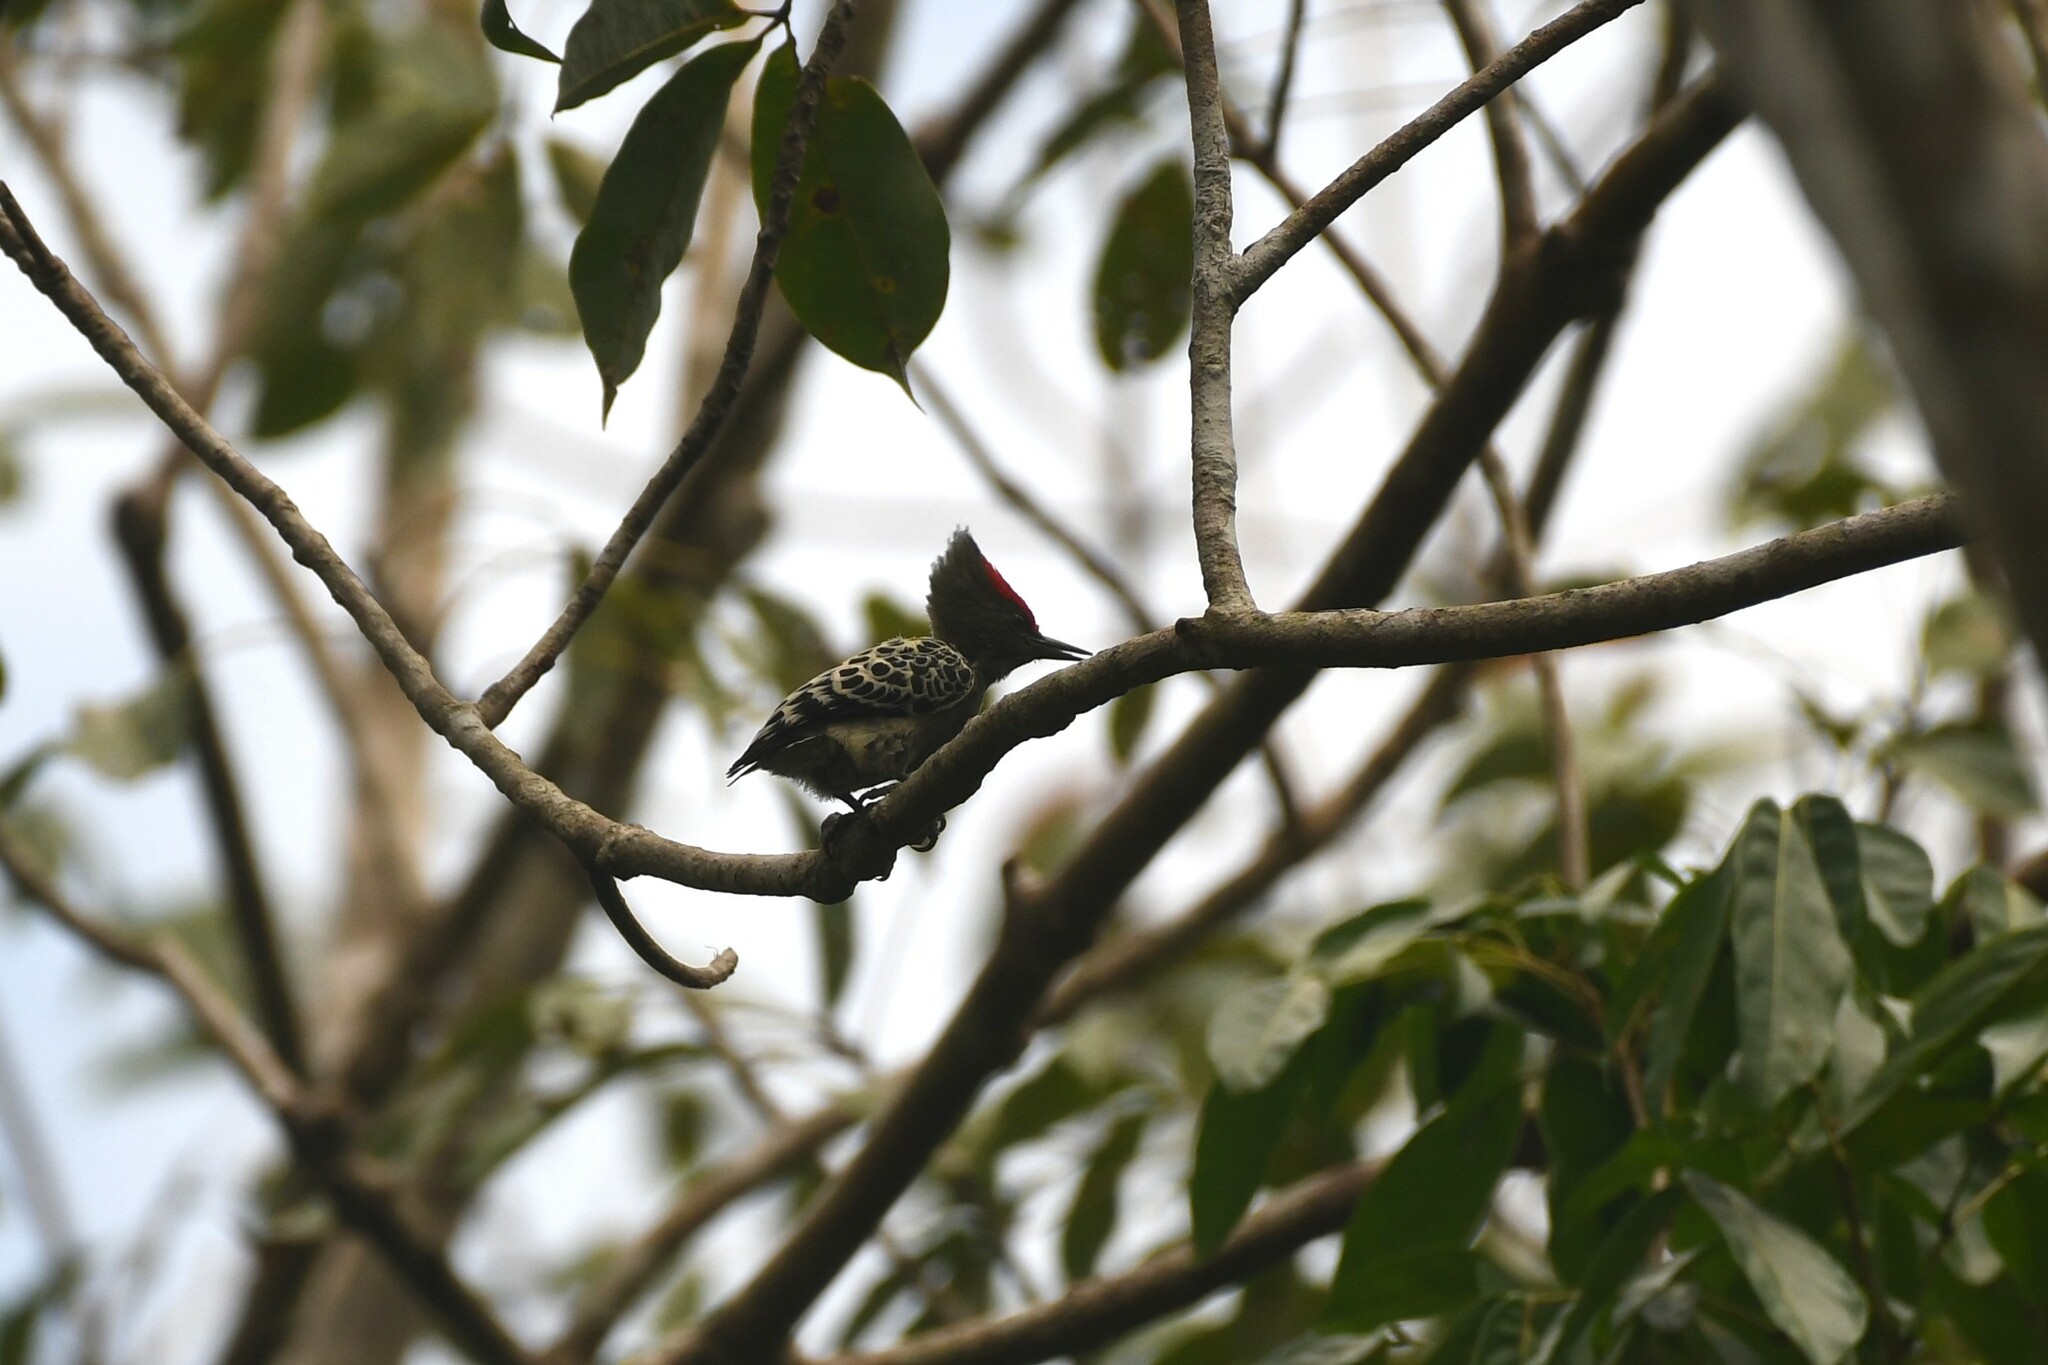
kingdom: Animalia
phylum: Chordata
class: Aves
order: Piciformes
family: Picidae
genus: Hemicircus
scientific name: Hemicircus concretus
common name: Grey-and-buff woodpecker
